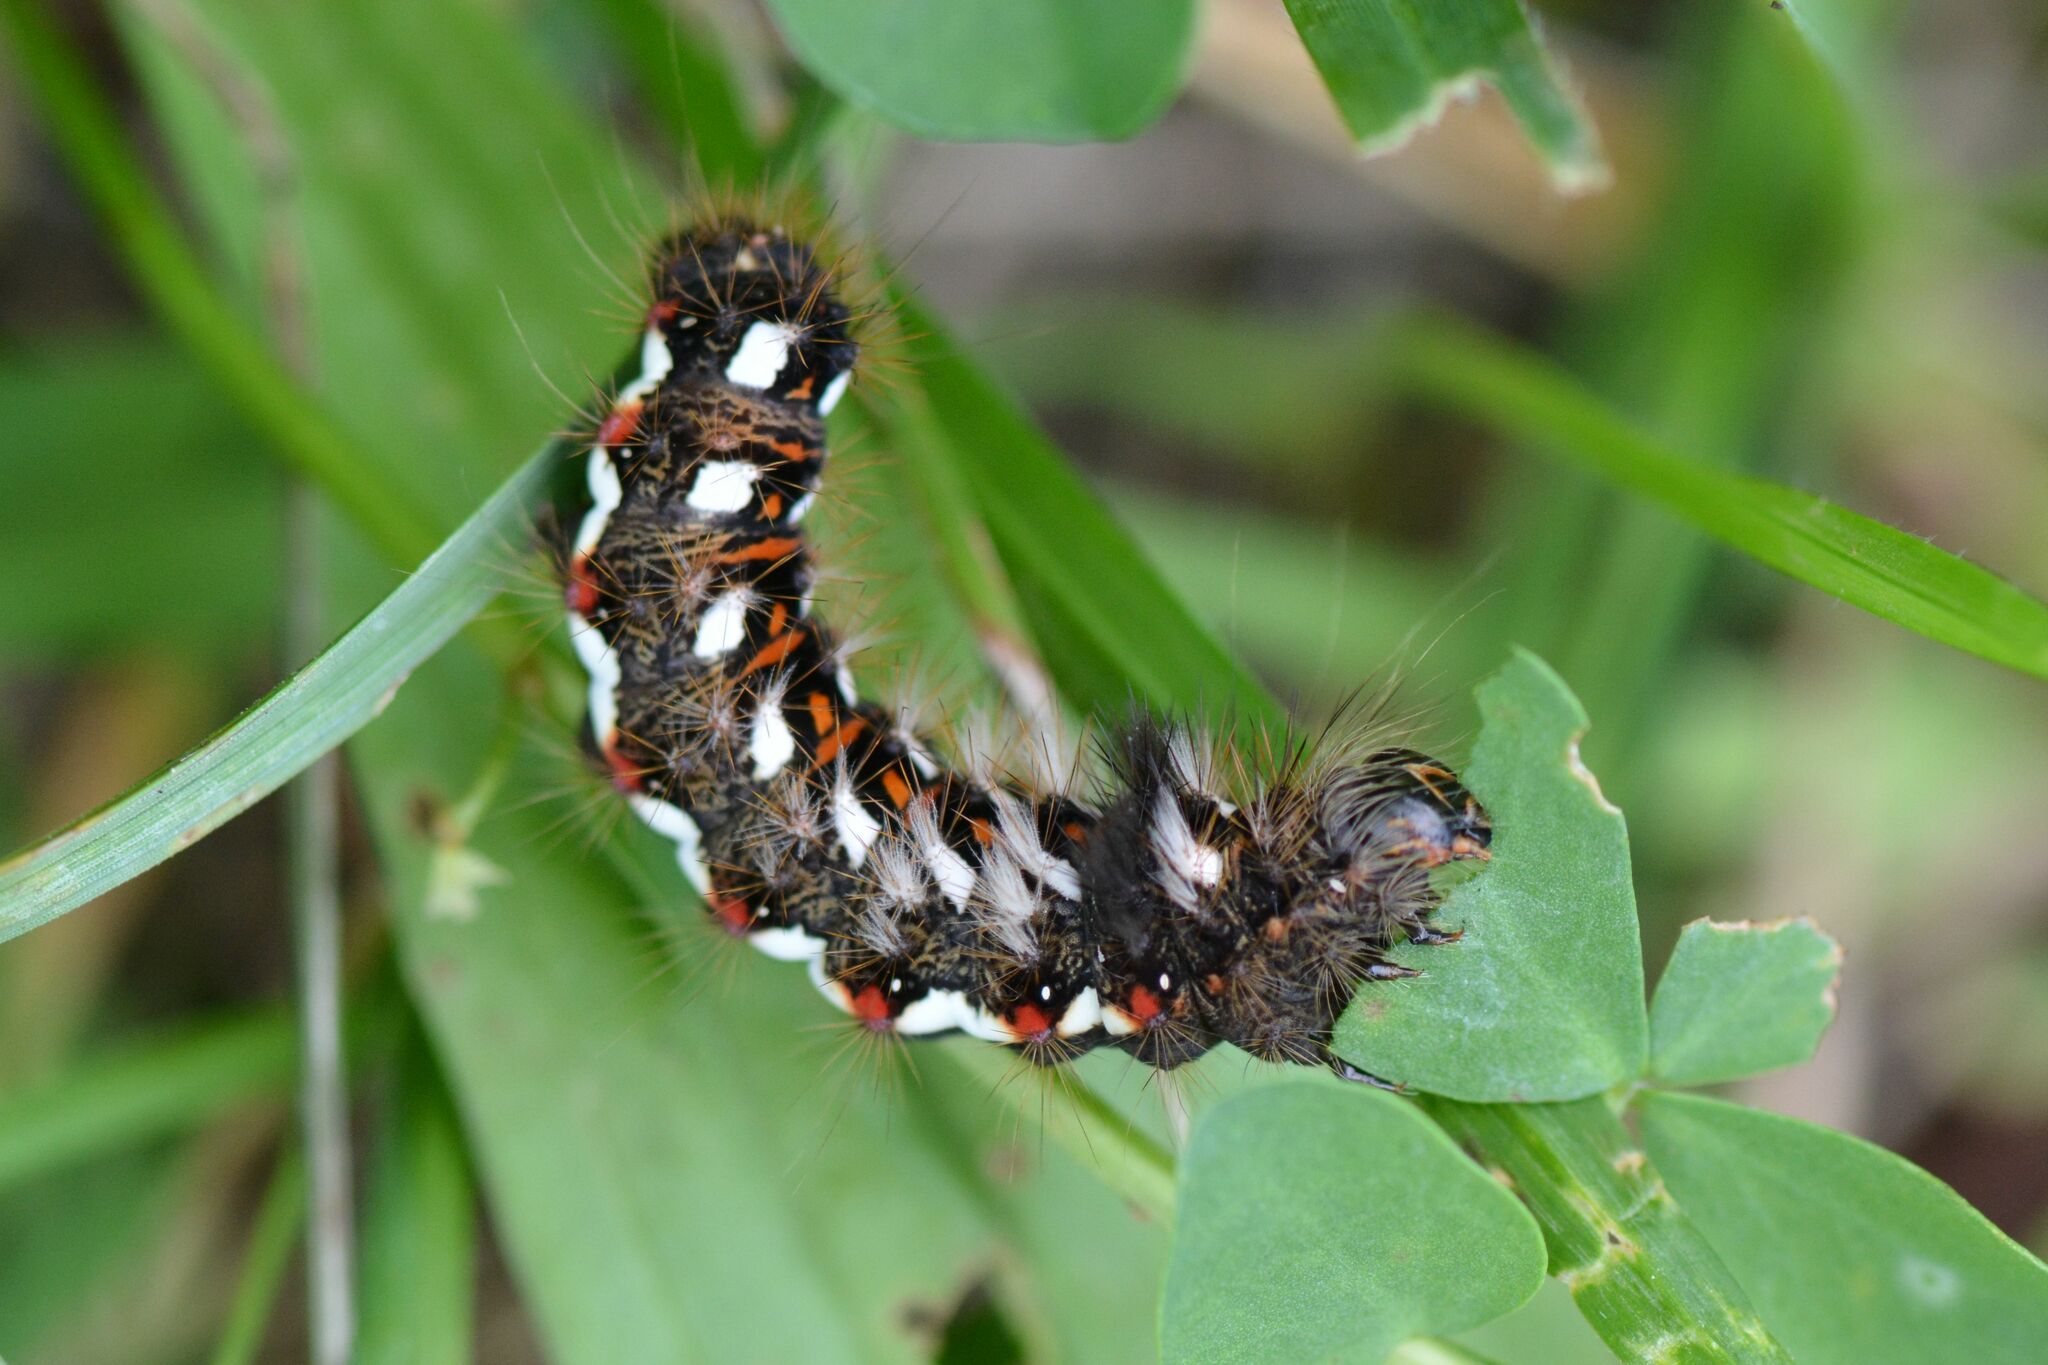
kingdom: Animalia
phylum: Arthropoda
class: Insecta
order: Lepidoptera
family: Noctuidae
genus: Acronicta
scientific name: Acronicta rumicis
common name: Knot grass
